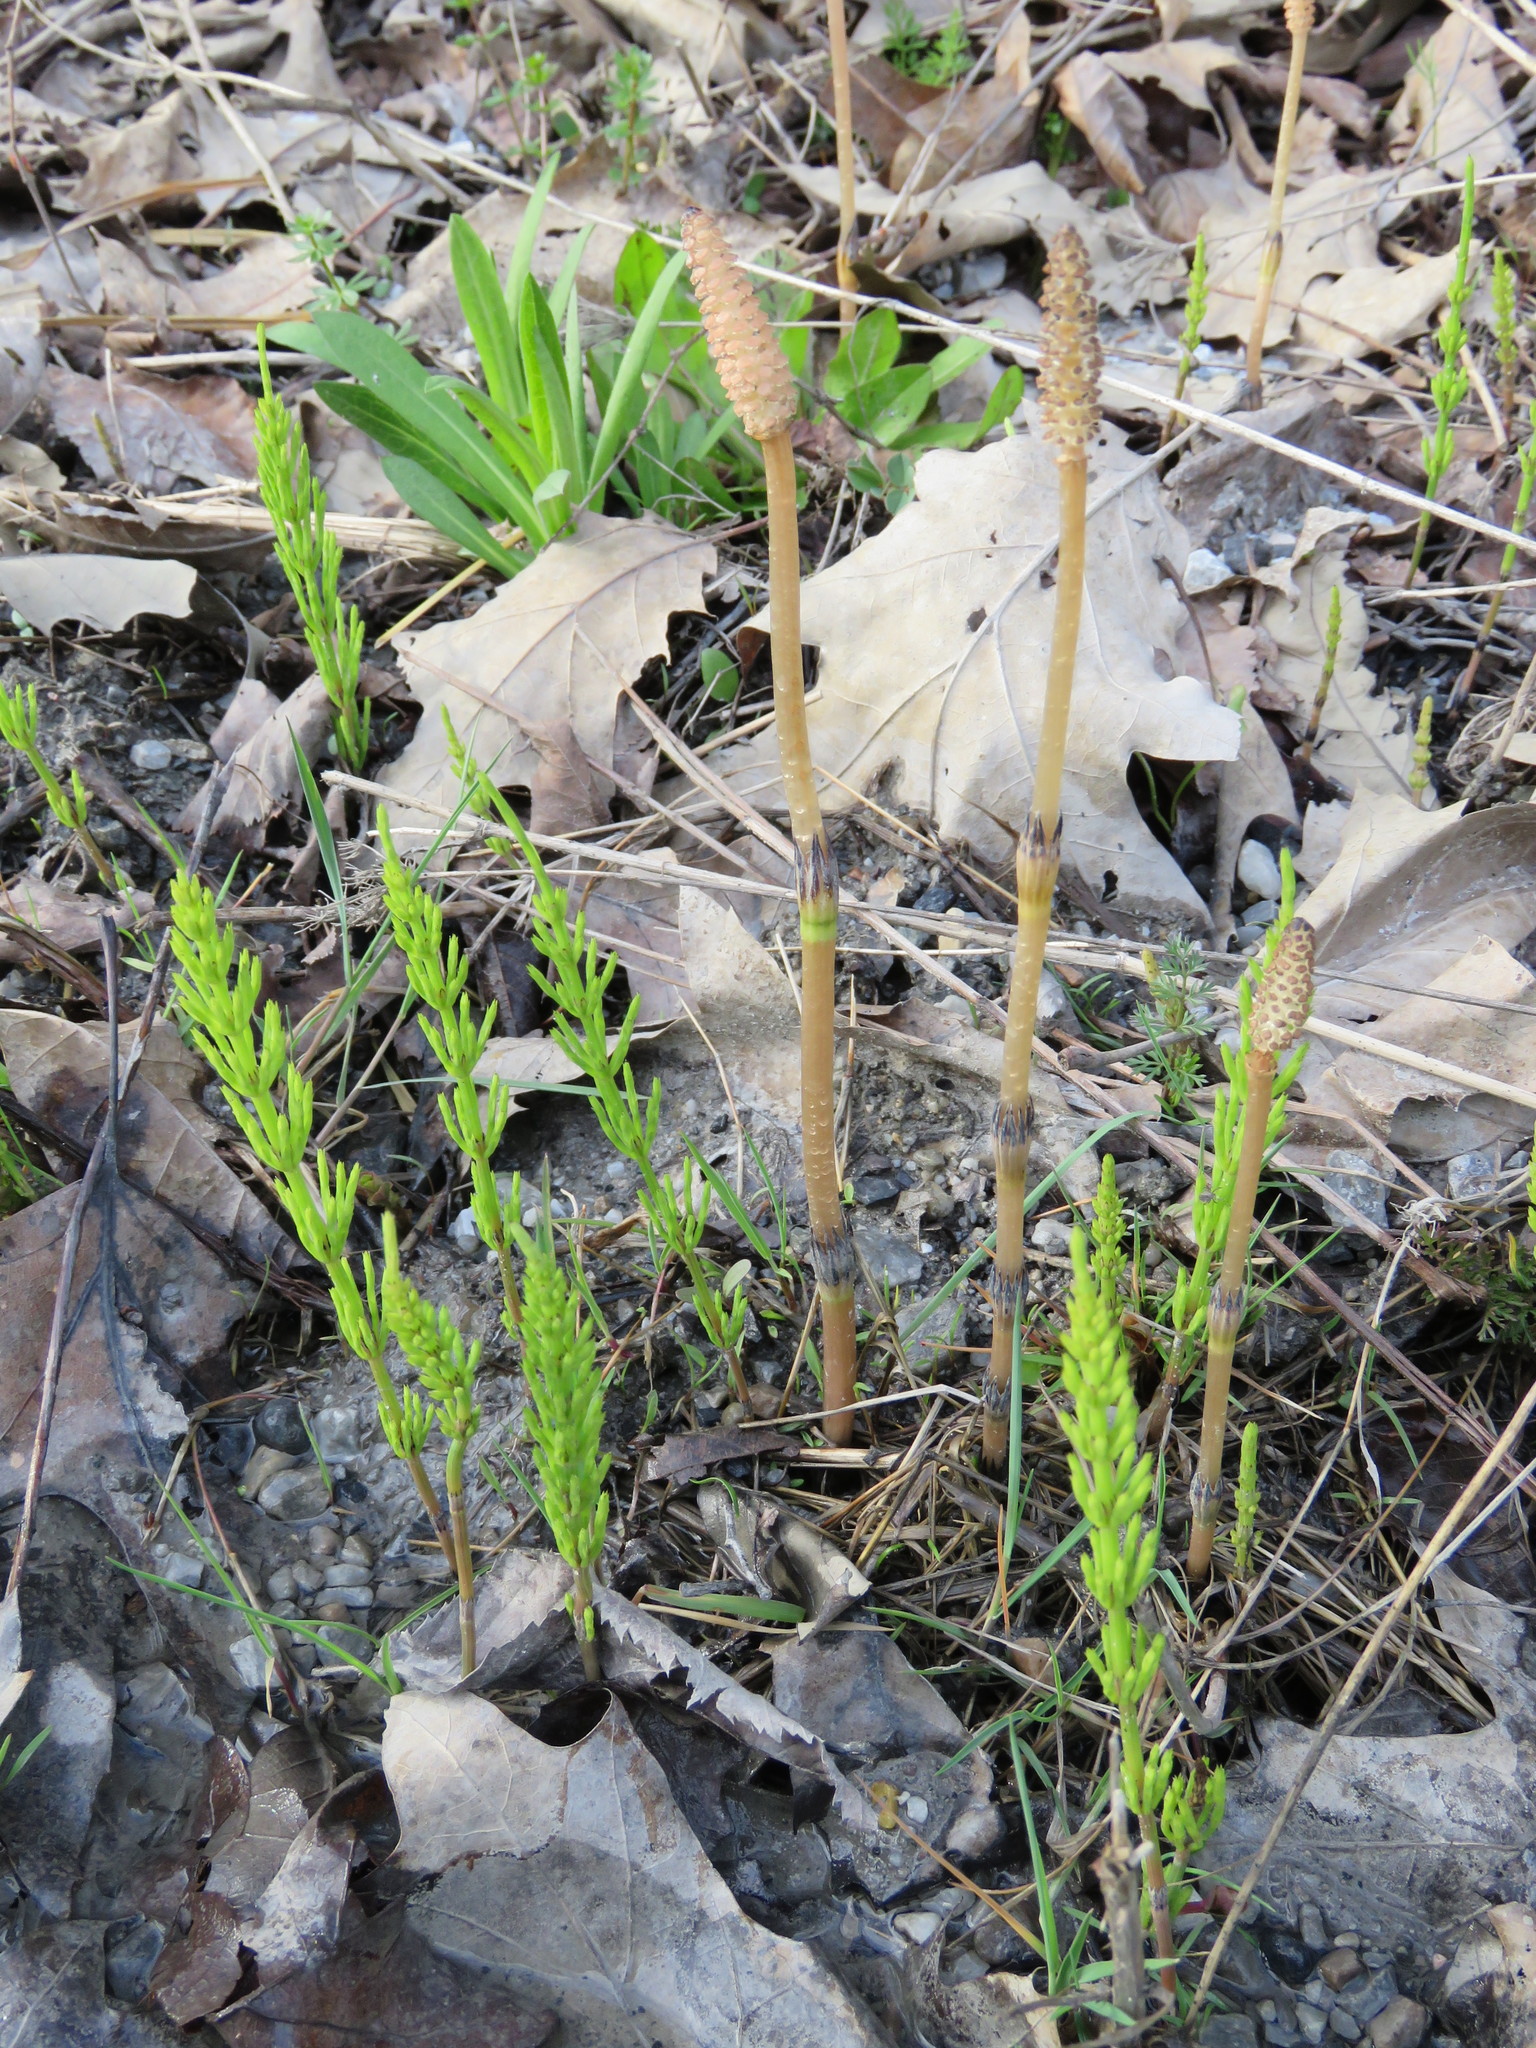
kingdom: Plantae
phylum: Tracheophyta
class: Polypodiopsida
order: Equisetales
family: Equisetaceae
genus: Equisetum
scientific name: Equisetum arvense
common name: Field horsetail
